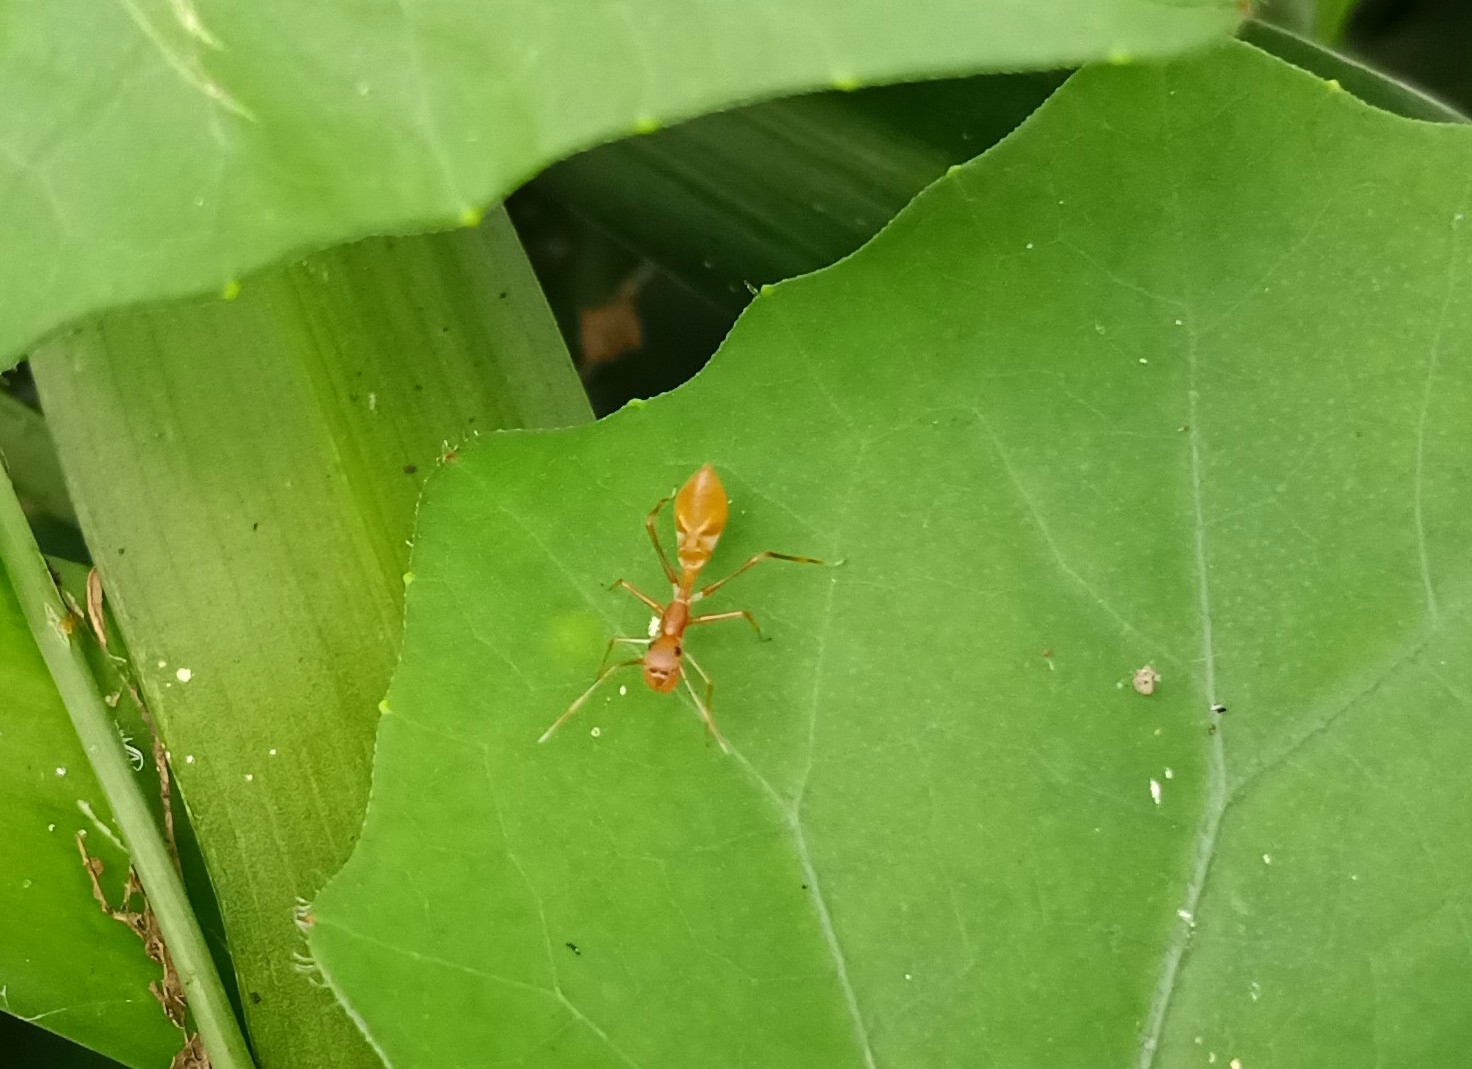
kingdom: Animalia
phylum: Arthropoda
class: Arachnida
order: Araneae
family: Salticidae
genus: Myrmaplata
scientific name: Myrmaplata plataleoides
